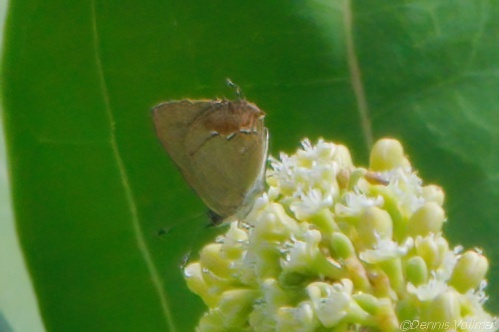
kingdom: Animalia
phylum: Arthropoda
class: Insecta
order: Lepidoptera
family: Lycaenidae
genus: Thecla
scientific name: Thecla maesites
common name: Verde azul hairstreak
